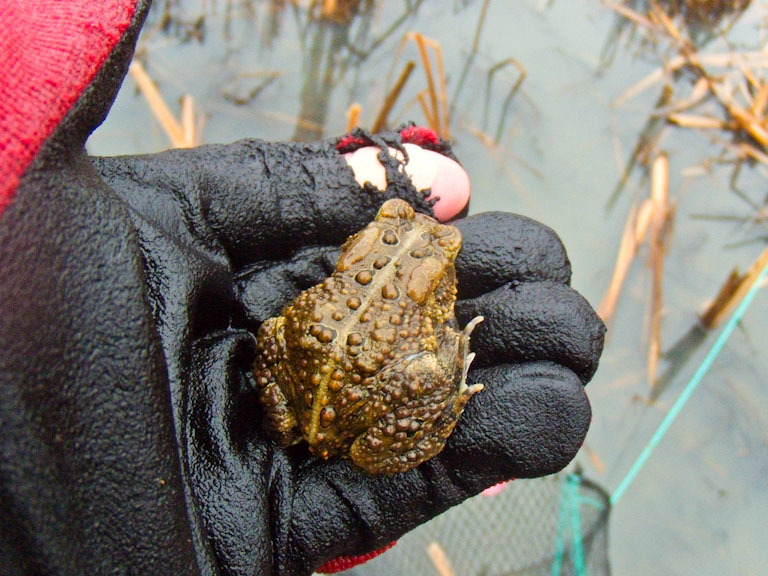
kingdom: Animalia
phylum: Chordata
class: Amphibia
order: Anura
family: Bufonidae
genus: Anaxyrus
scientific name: Anaxyrus americanus
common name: American toad
